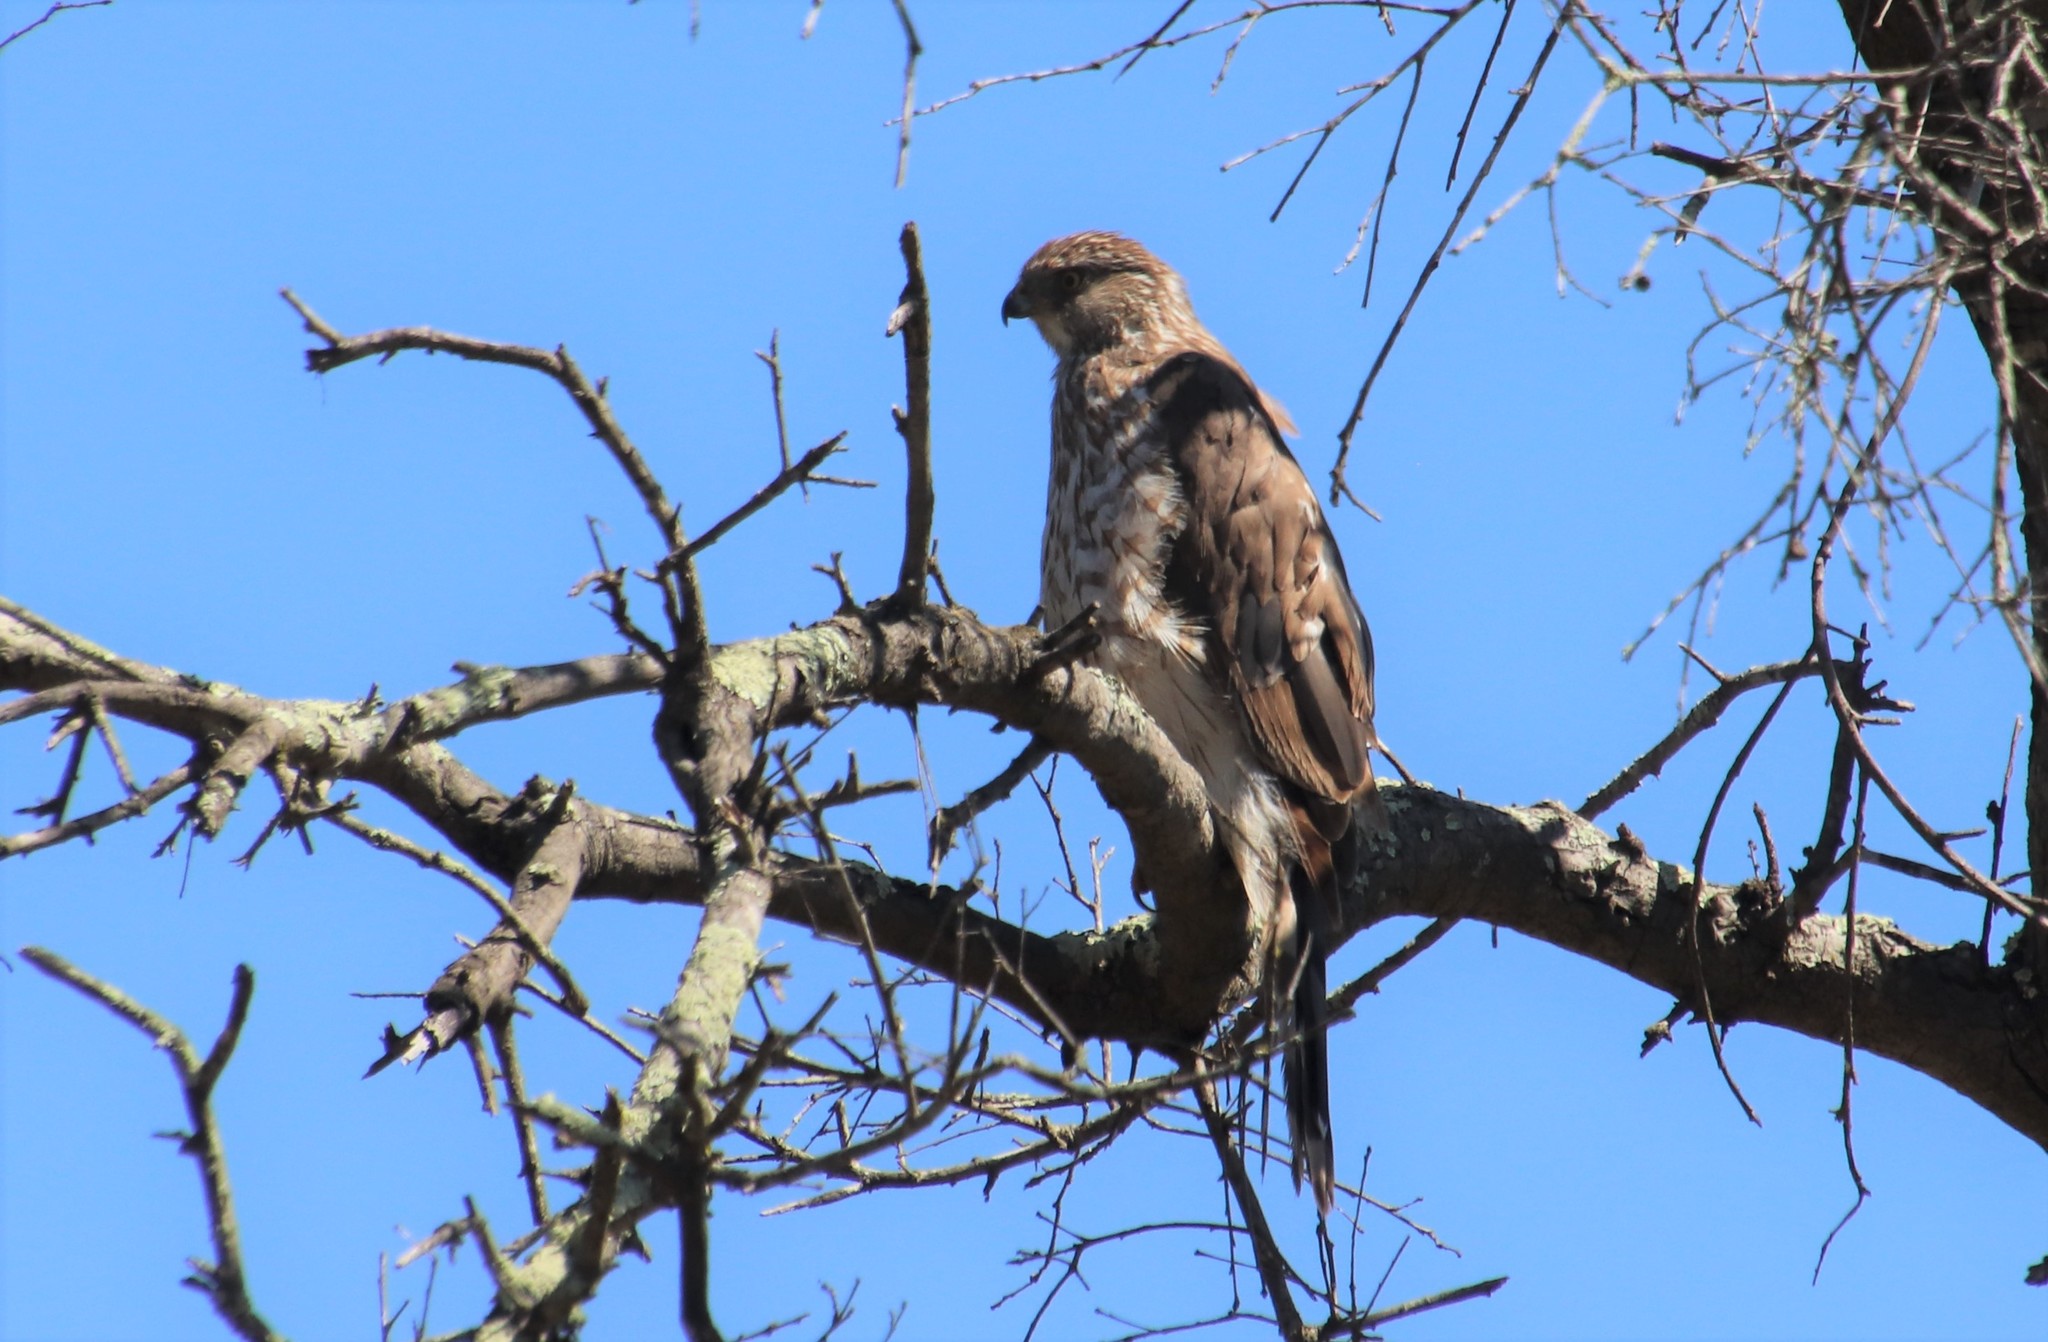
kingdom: Animalia
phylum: Chordata
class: Aves
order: Accipitriformes
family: Accipitridae
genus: Accipiter
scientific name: Accipiter cooperii
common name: Cooper's hawk
